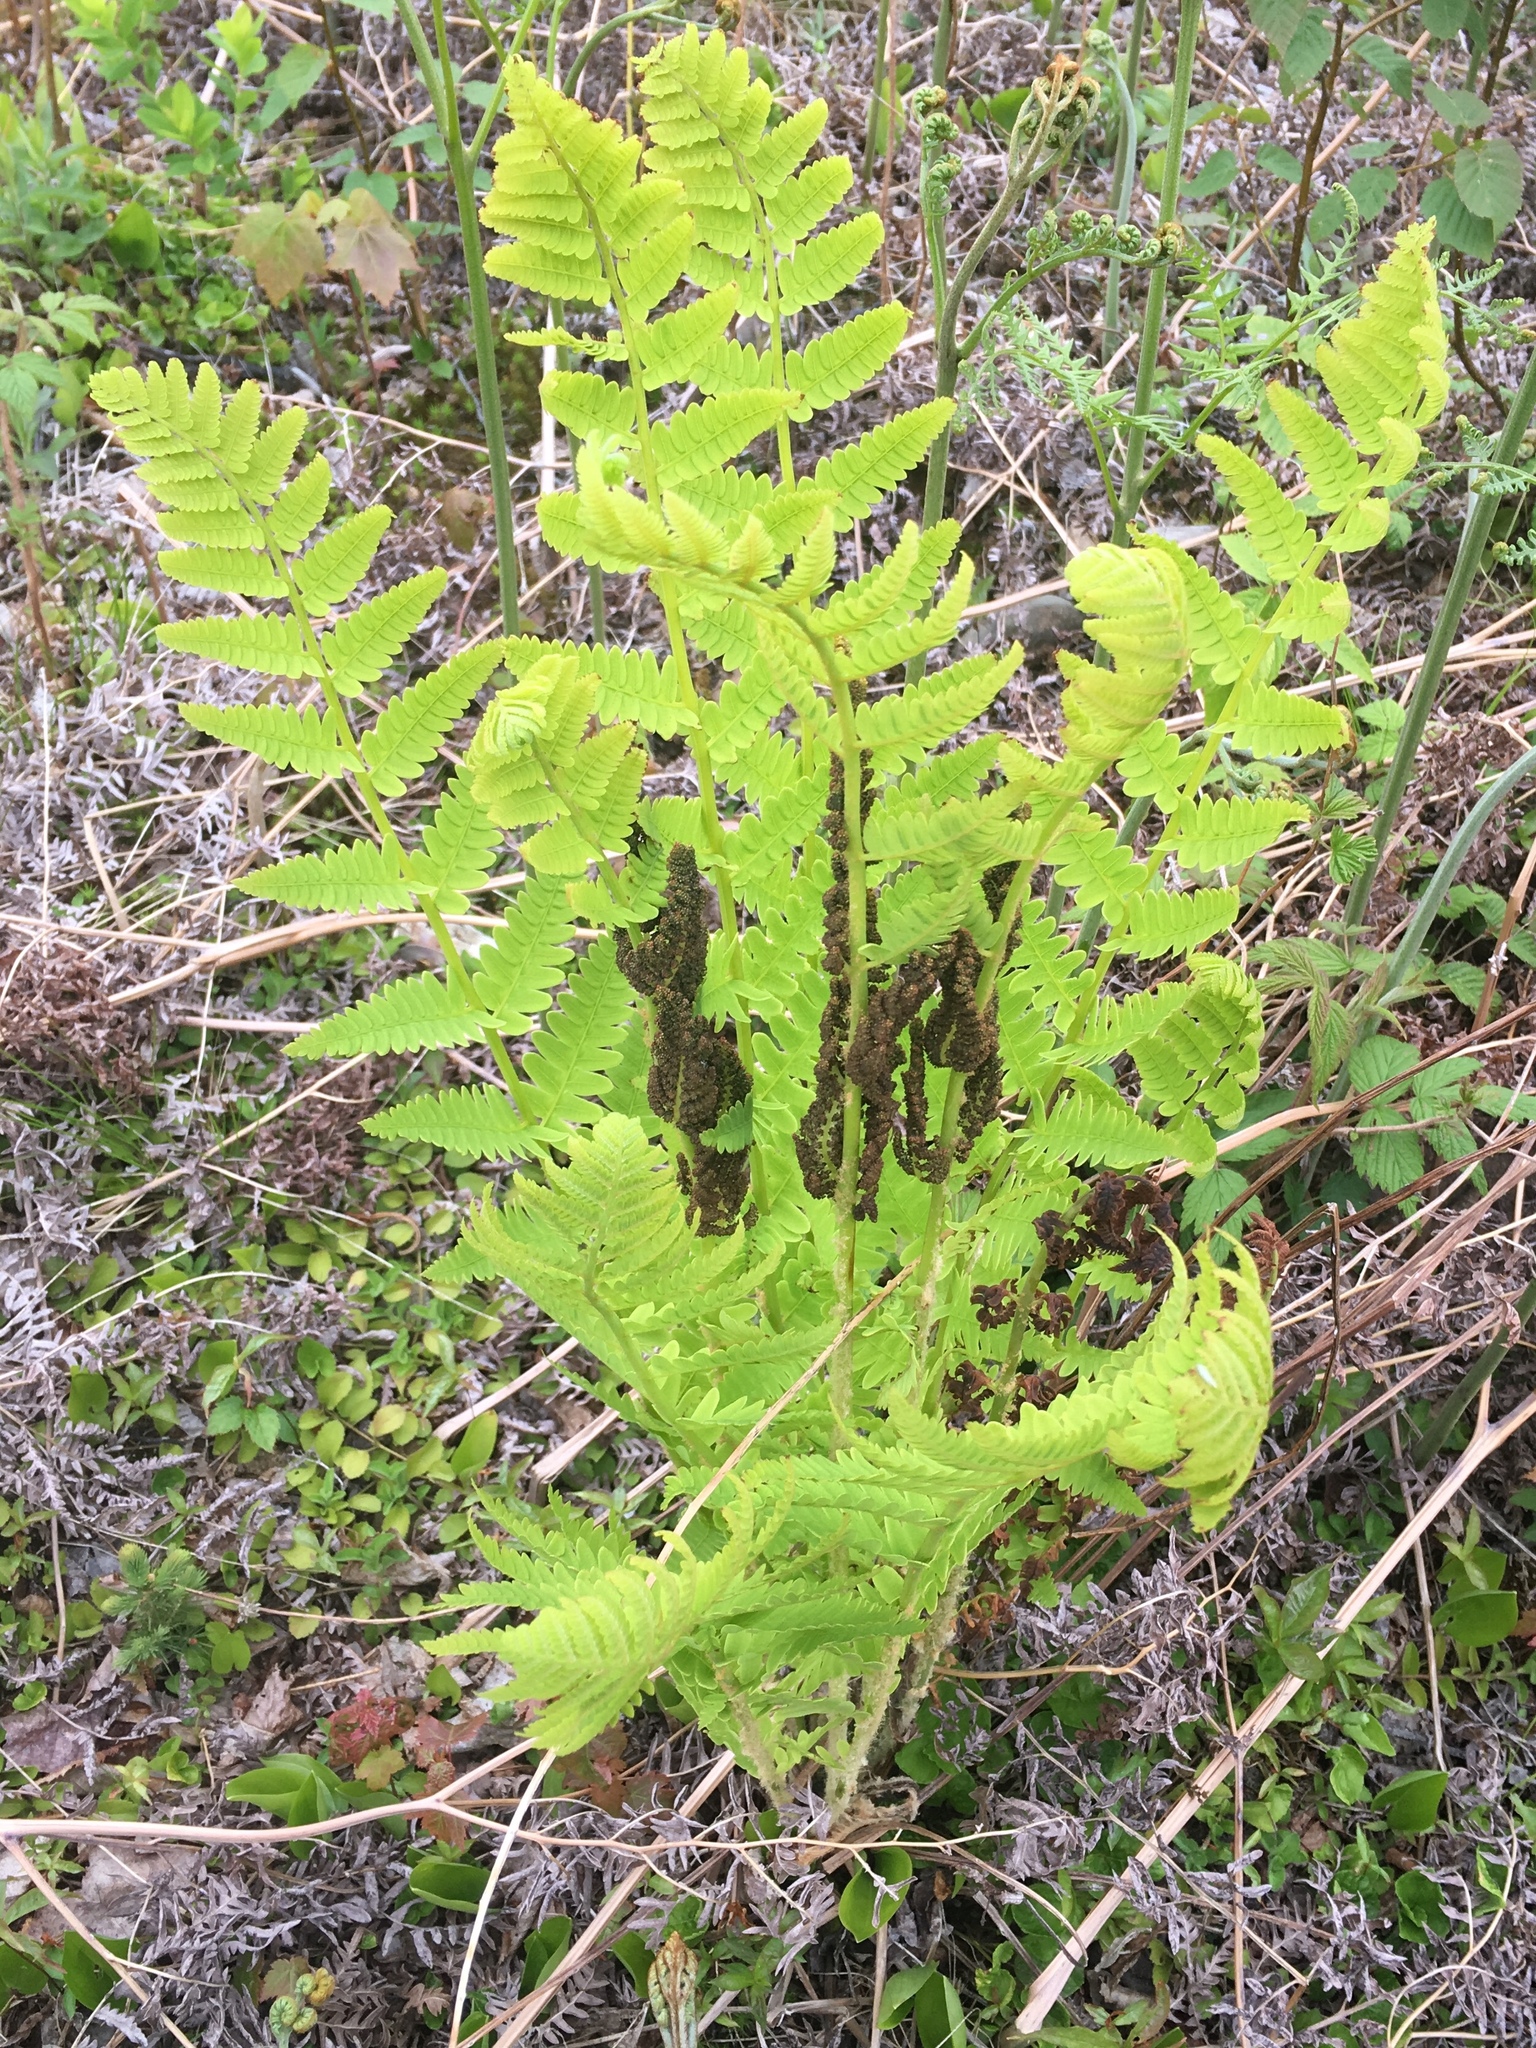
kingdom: Plantae
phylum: Tracheophyta
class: Polypodiopsida
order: Osmundales
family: Osmundaceae
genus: Claytosmunda
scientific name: Claytosmunda claytoniana
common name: Clayton's fern
